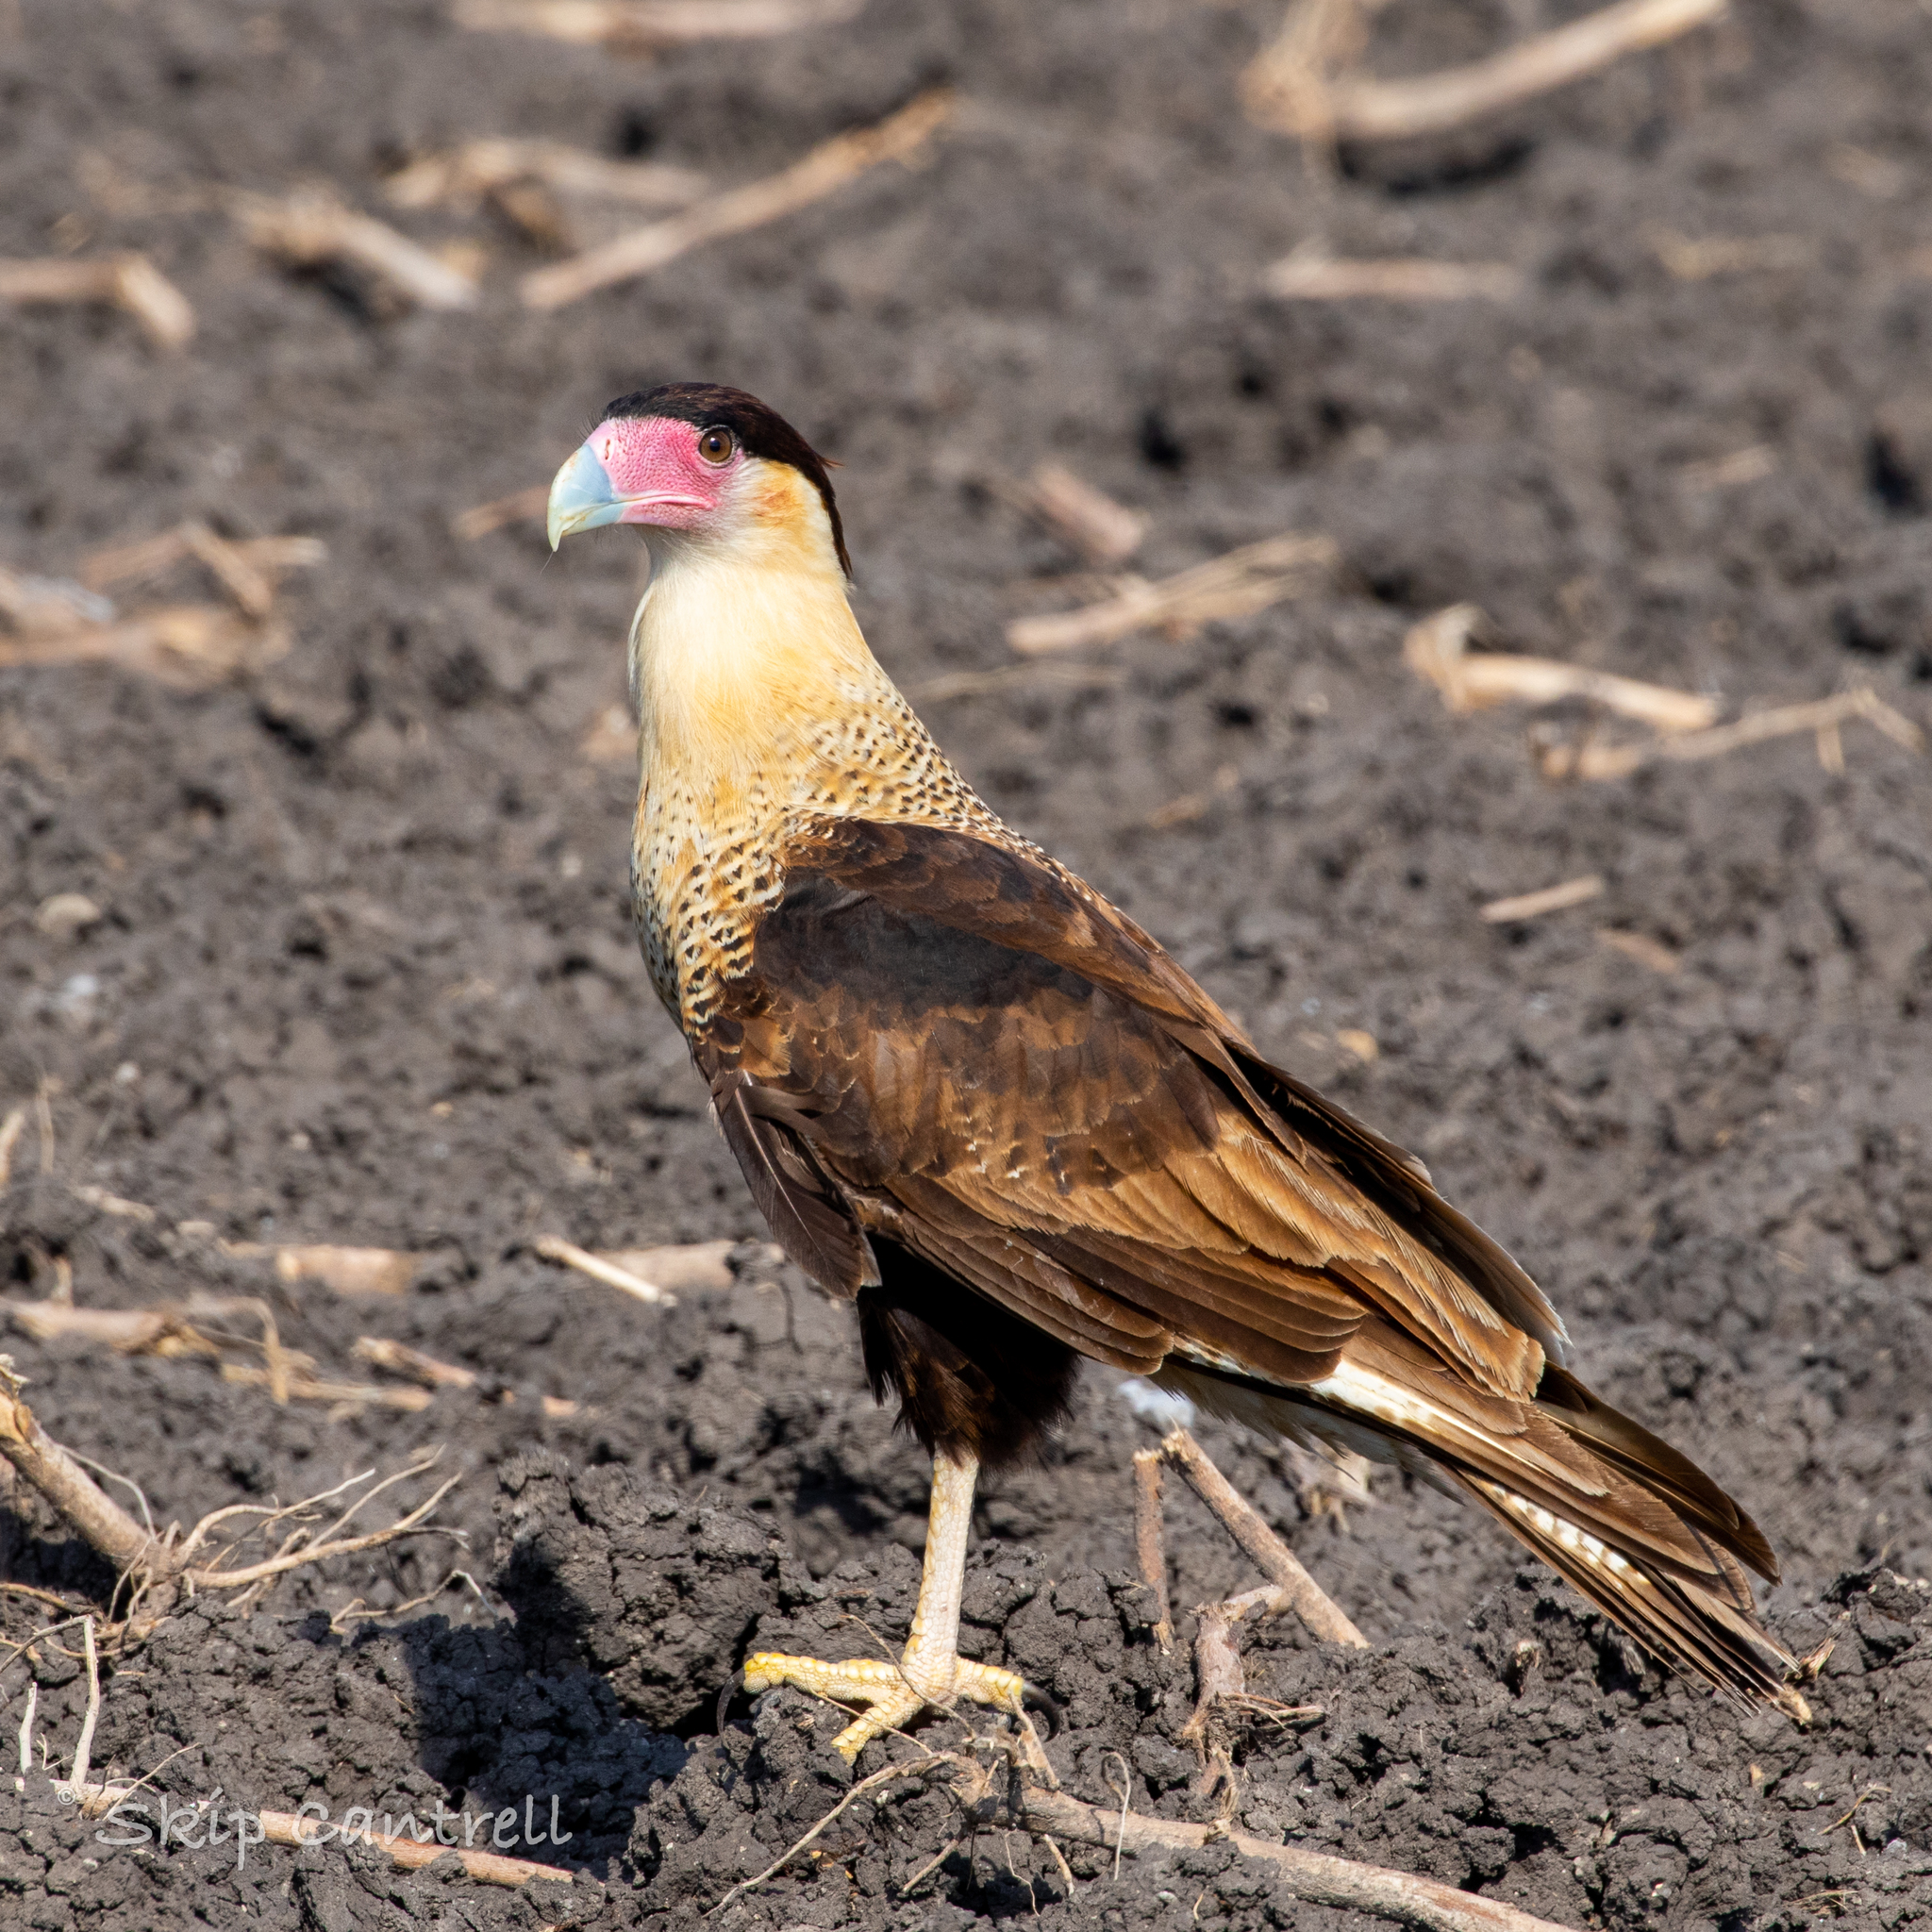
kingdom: Animalia
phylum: Chordata
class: Aves
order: Falconiformes
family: Falconidae
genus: Caracara
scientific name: Caracara plancus
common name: Southern caracara
